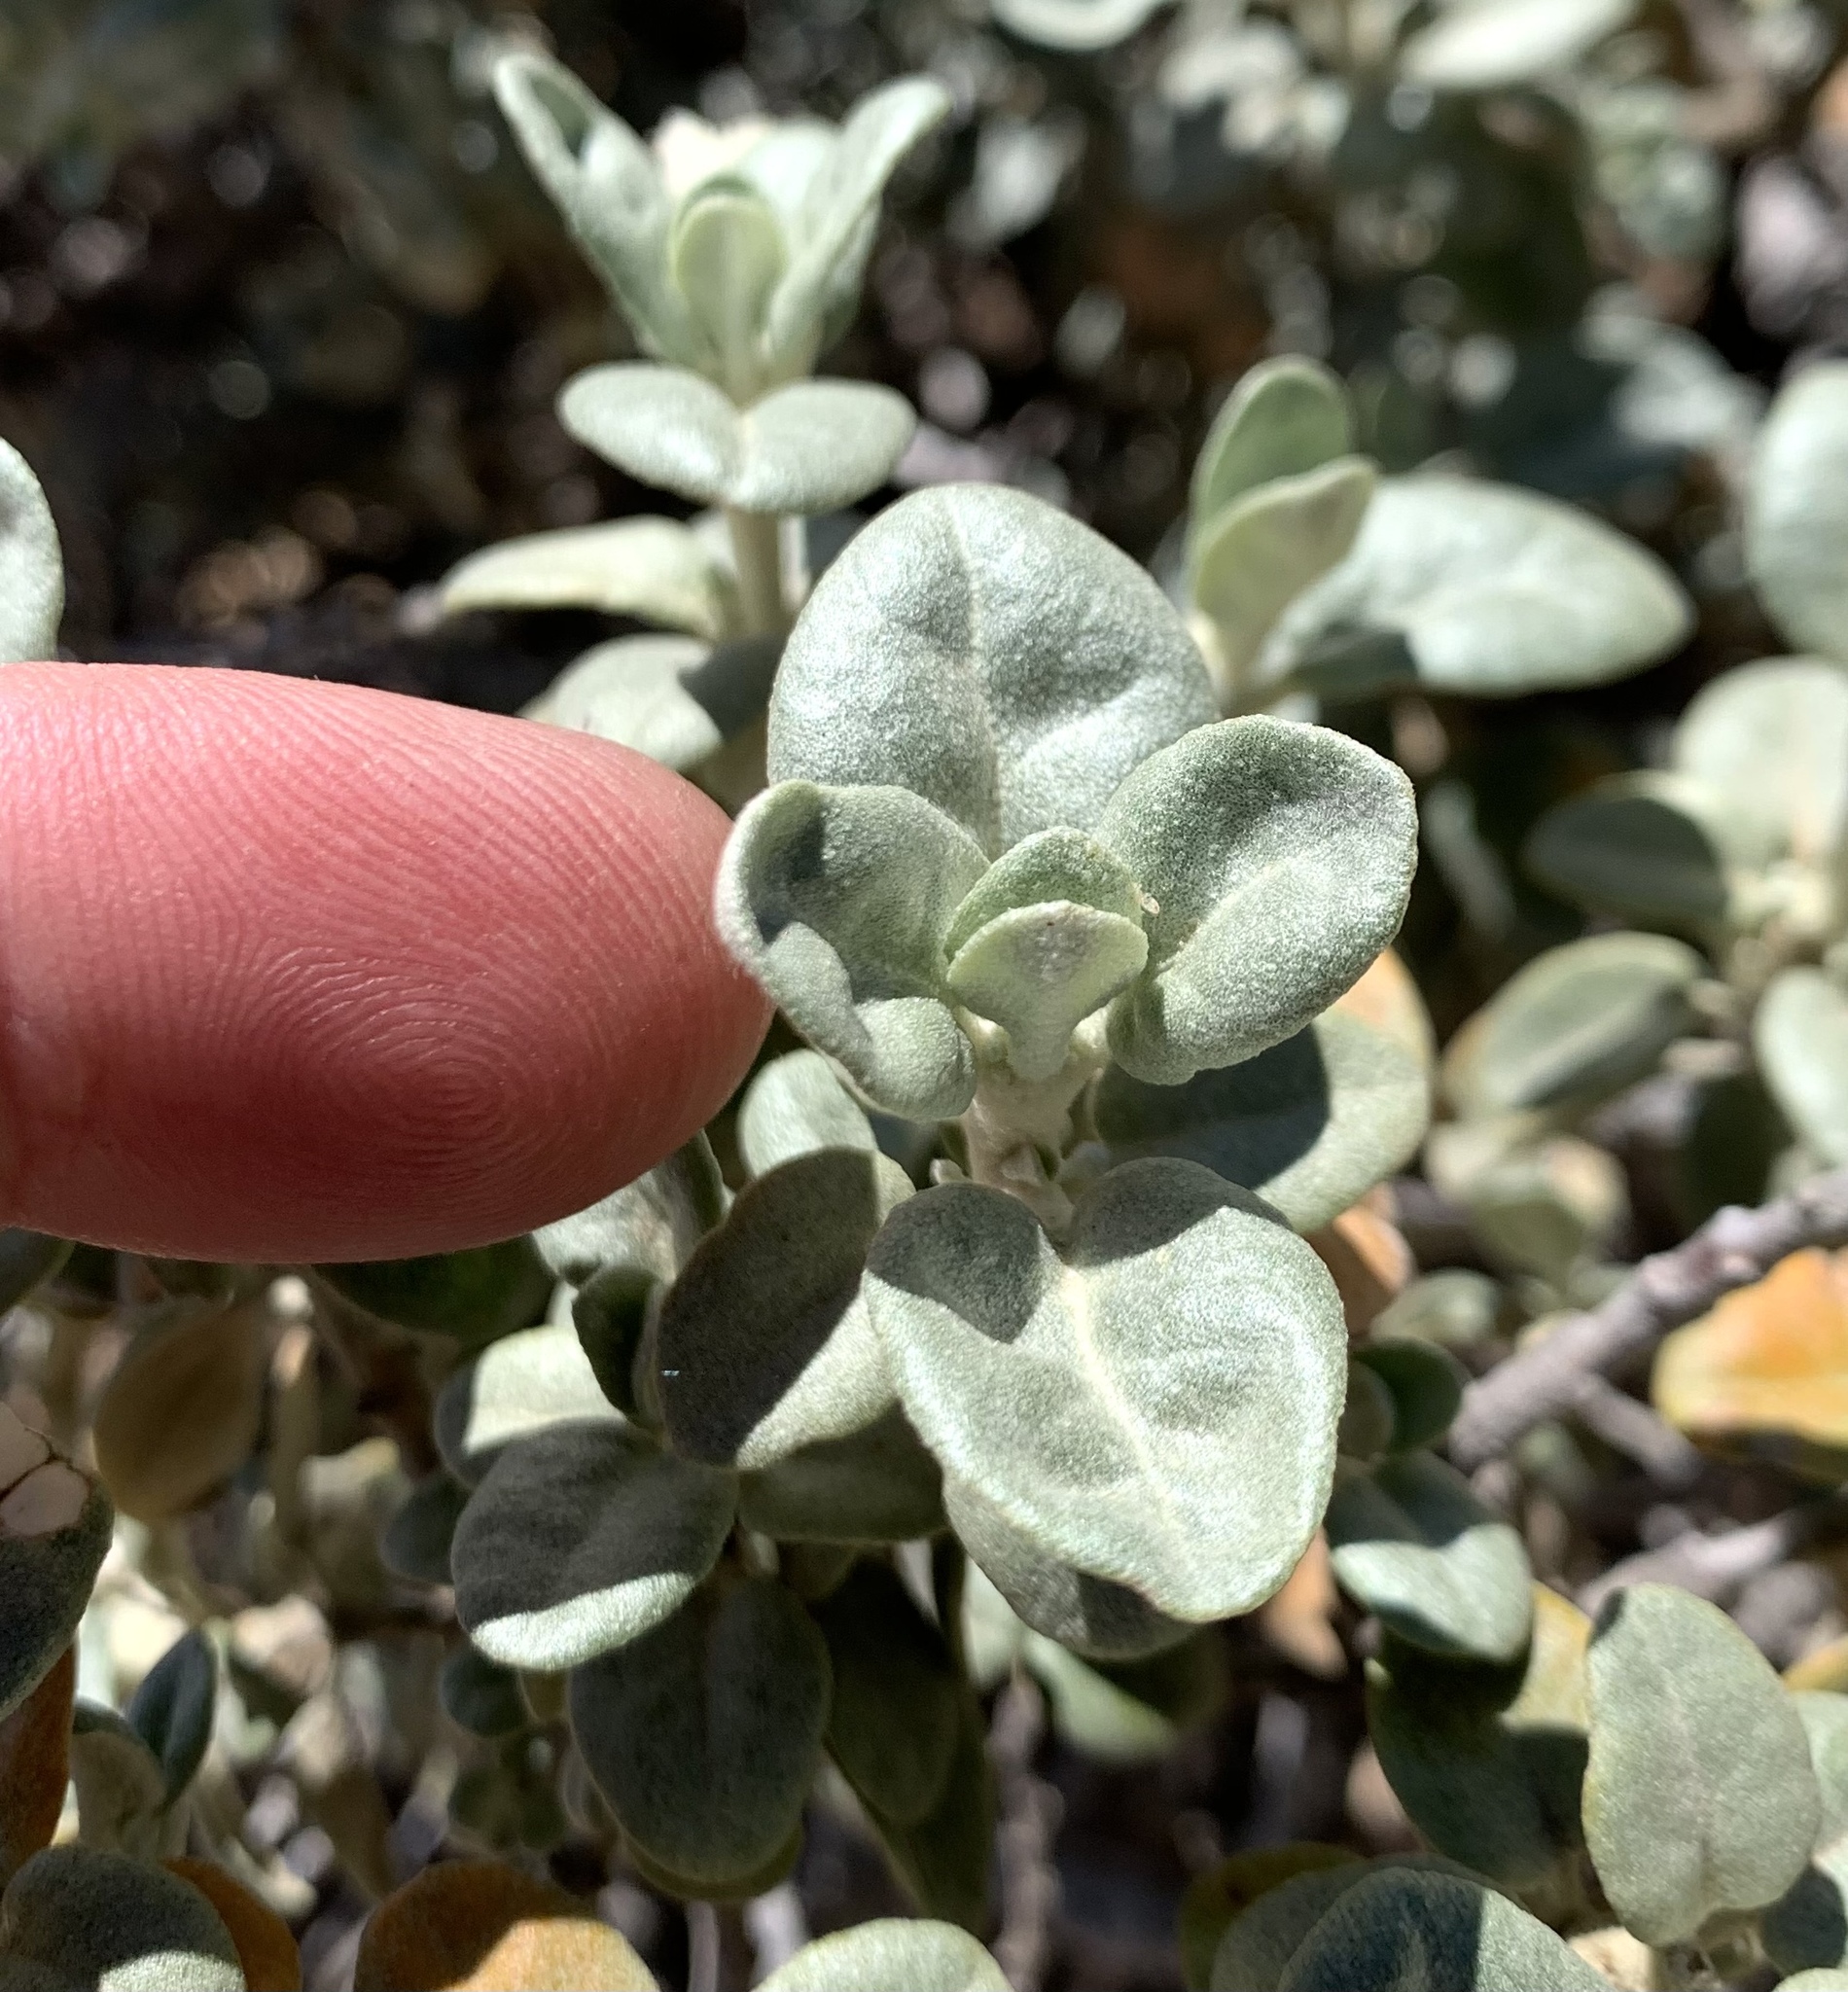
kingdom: Plantae
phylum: Tracheophyta
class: Magnoliopsida
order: Rosales
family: Elaeagnaceae
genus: Shepherdia
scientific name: Shepherdia rotundifolia
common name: Silverscale
